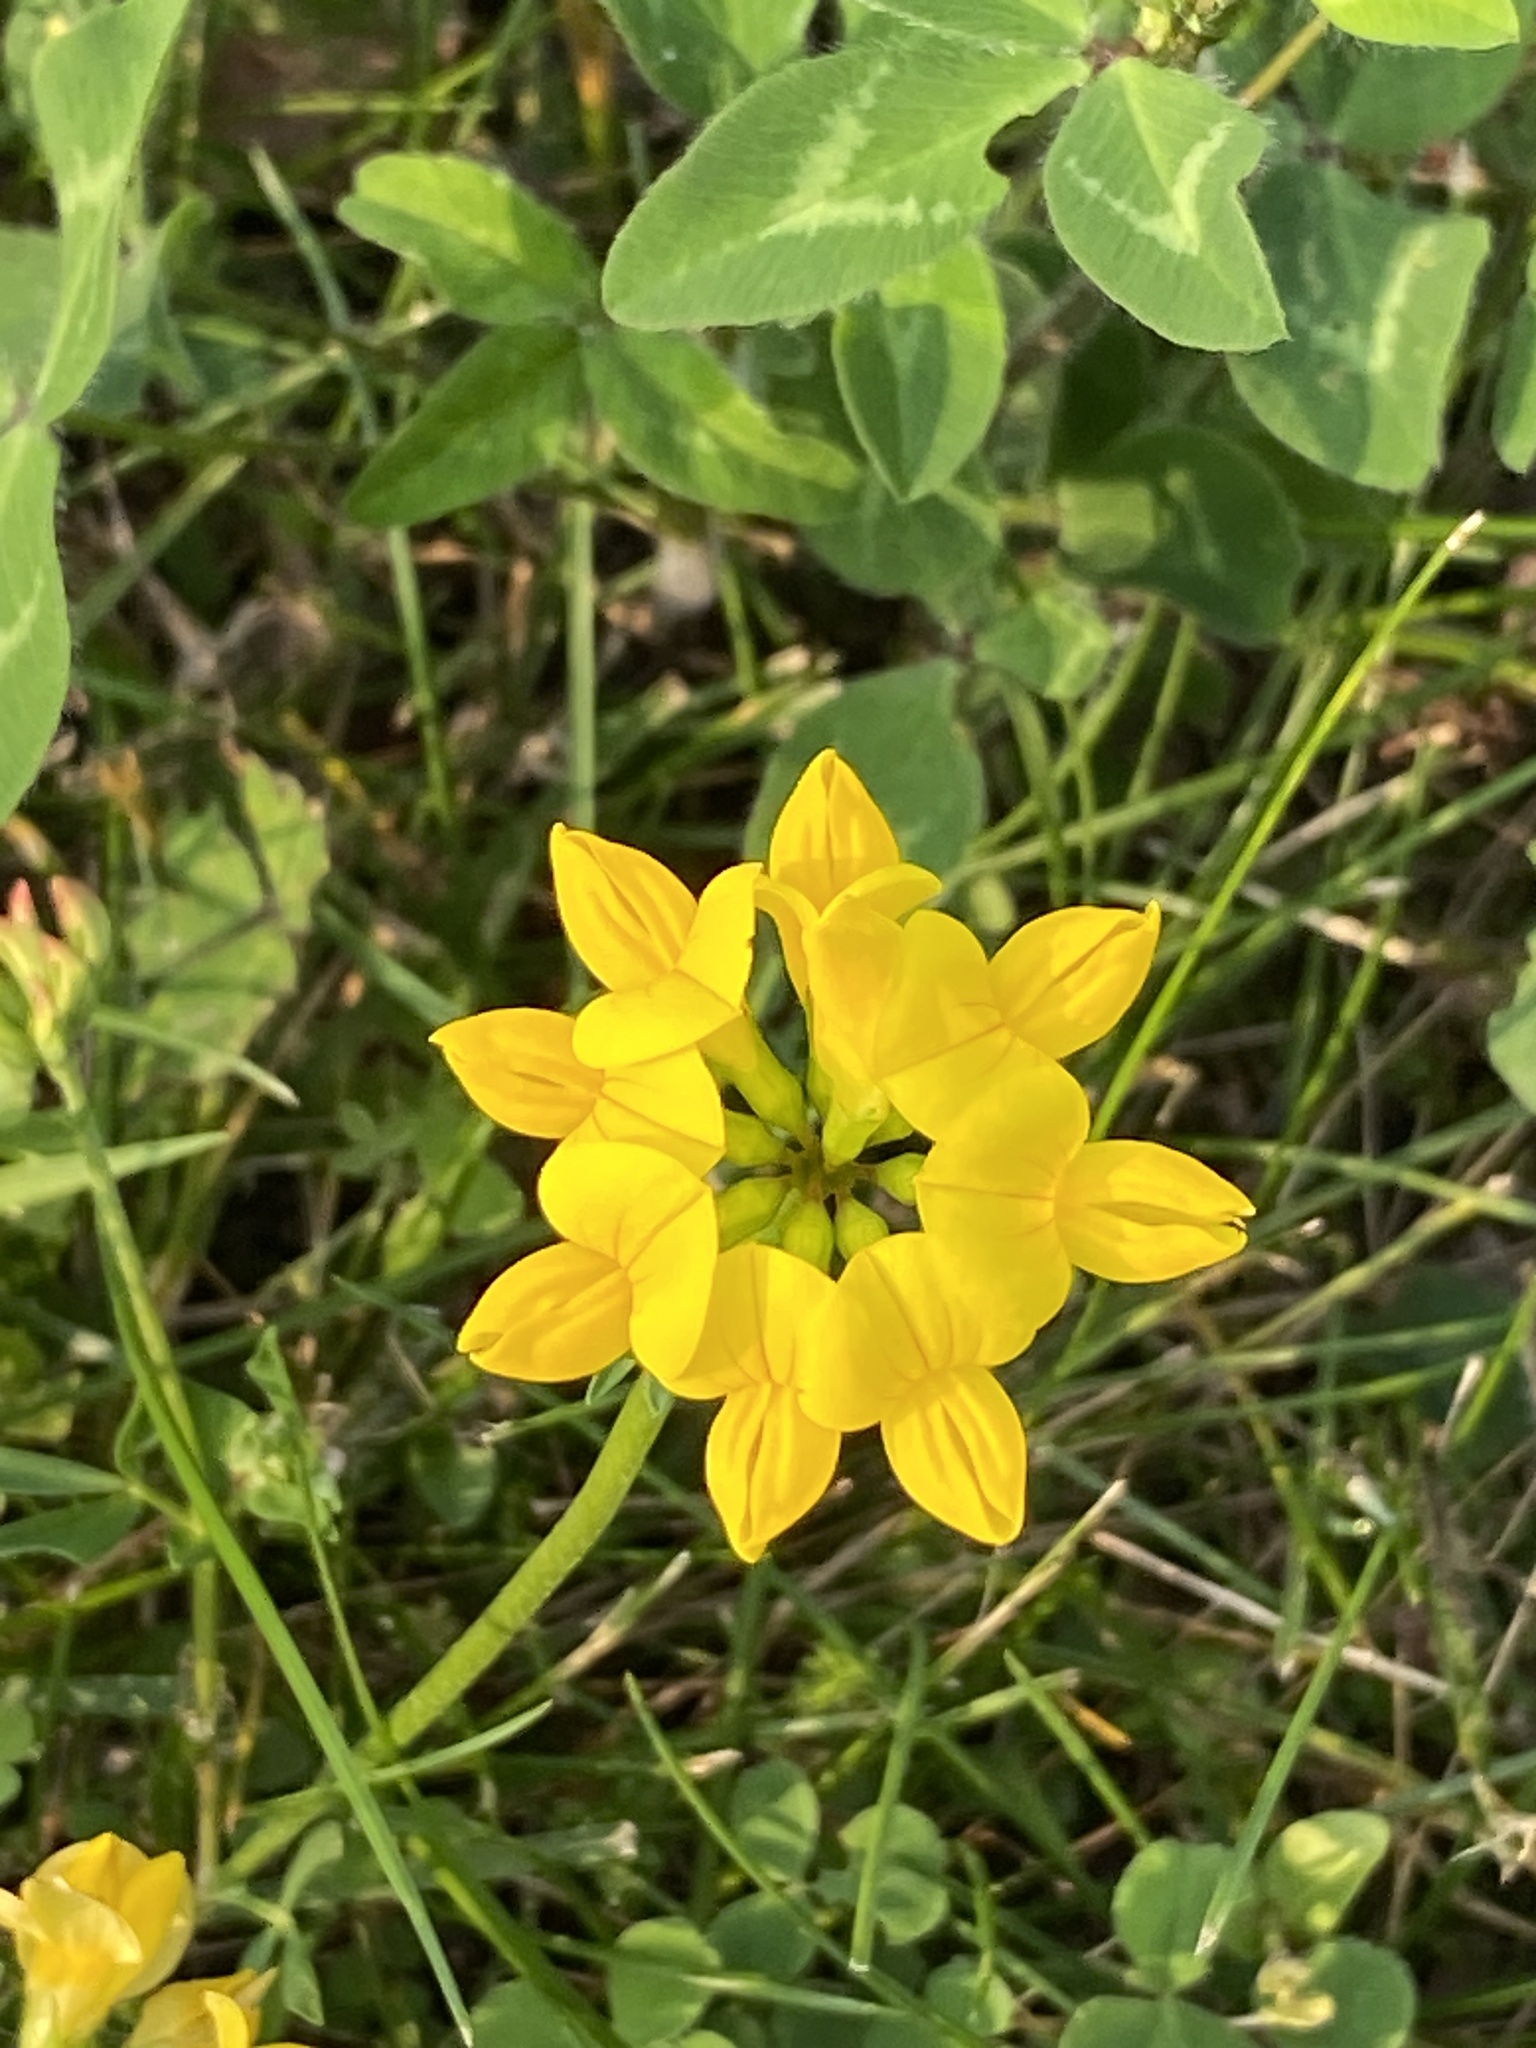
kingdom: Plantae
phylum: Tracheophyta
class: Magnoliopsida
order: Fabales
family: Fabaceae
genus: Lotus
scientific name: Lotus corniculatus
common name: Common bird's-foot-trefoil
